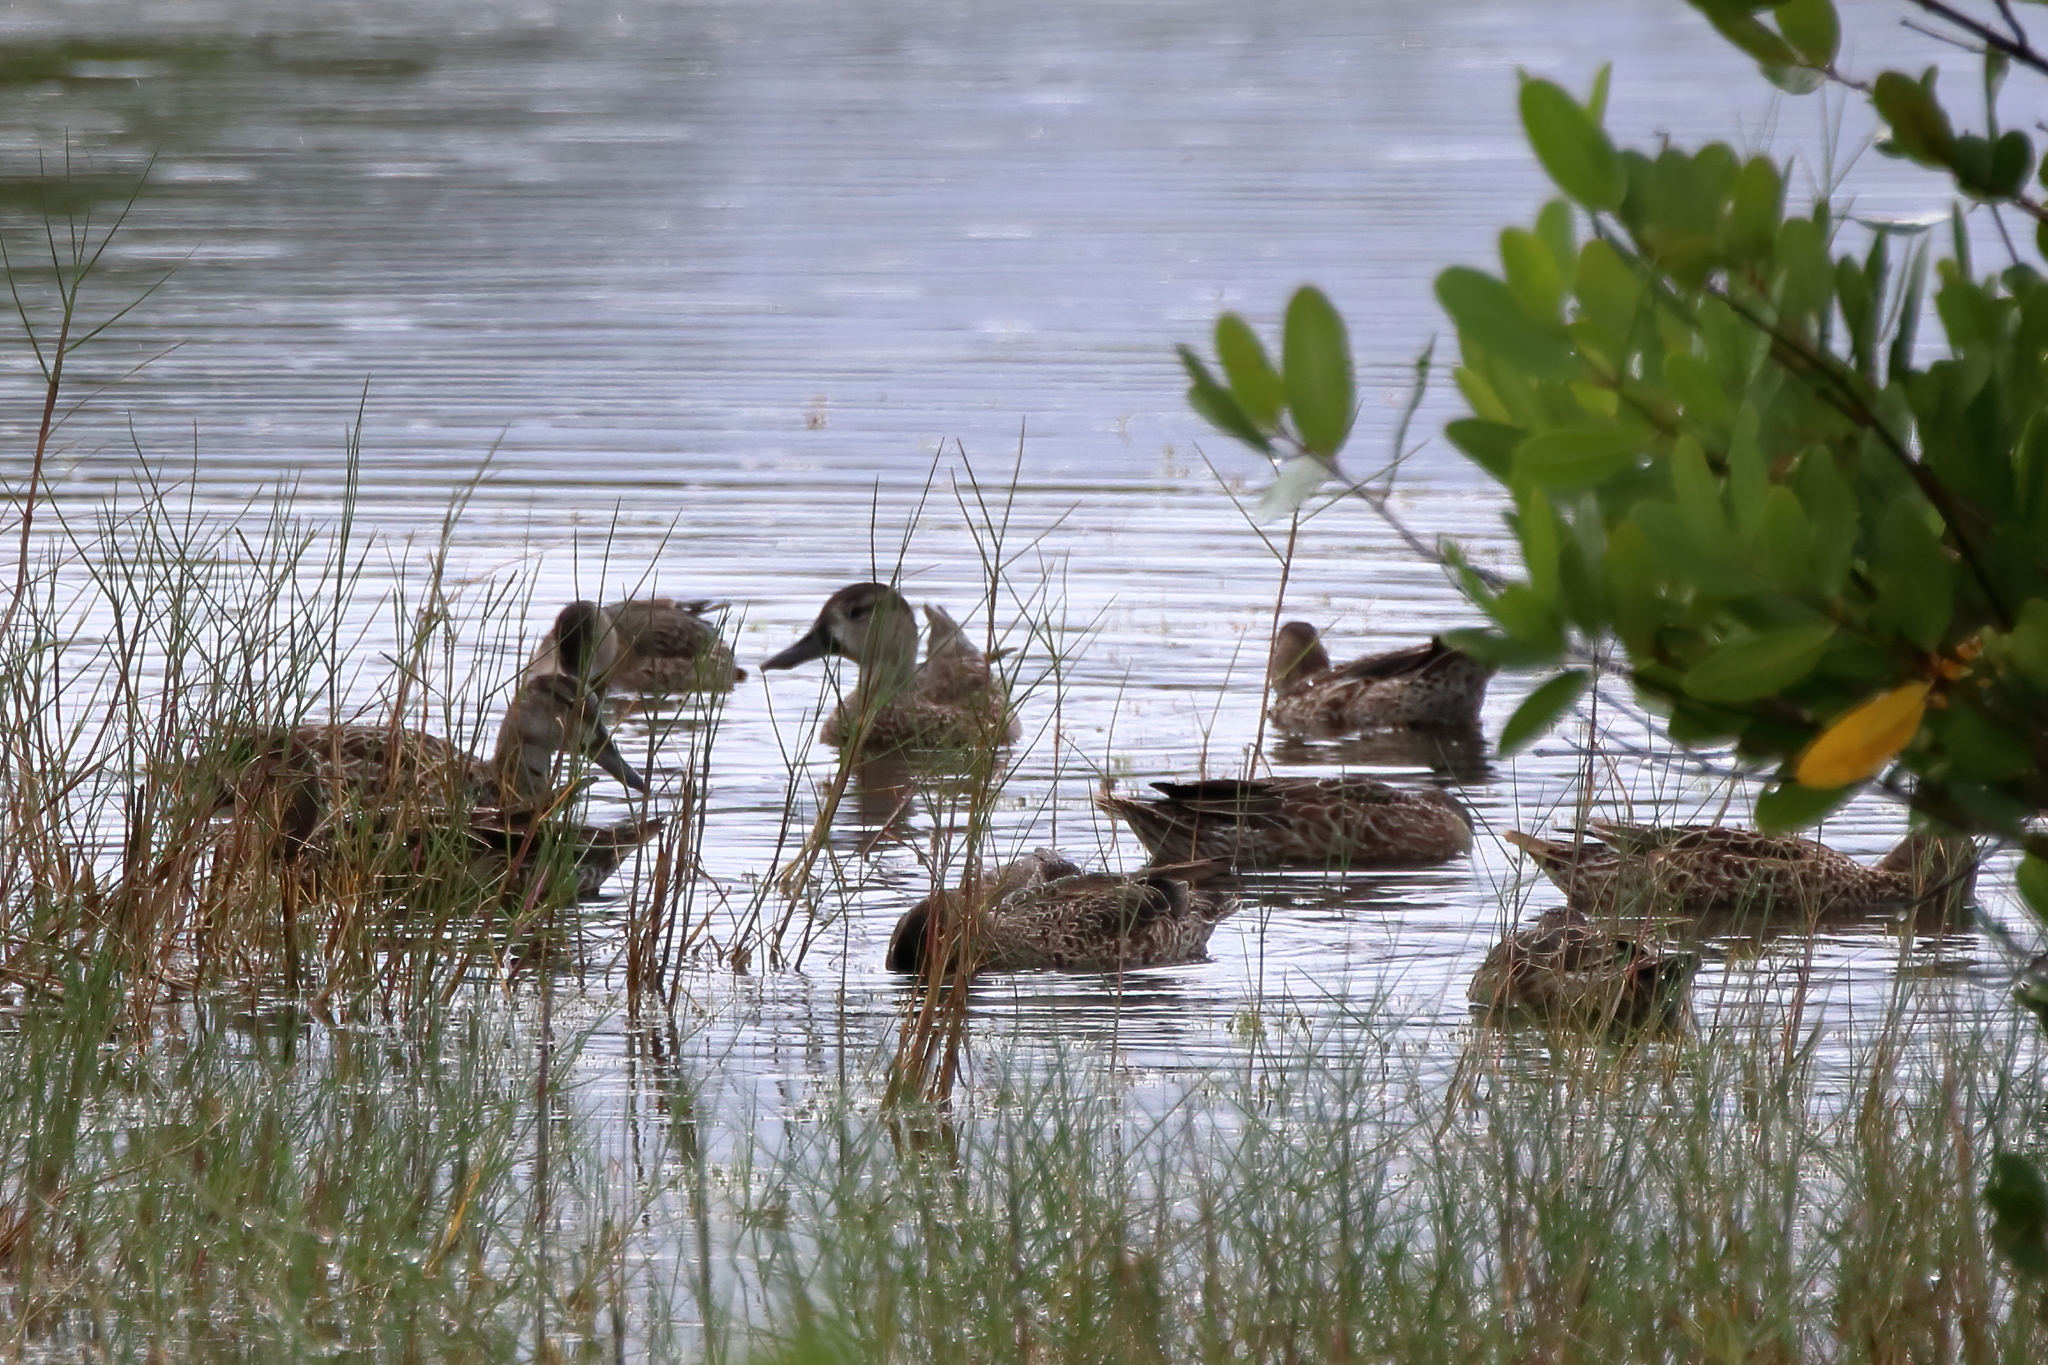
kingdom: Animalia
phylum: Chordata
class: Aves
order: Anseriformes
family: Anatidae
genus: Spatula
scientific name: Spatula discors
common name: Blue-winged teal
